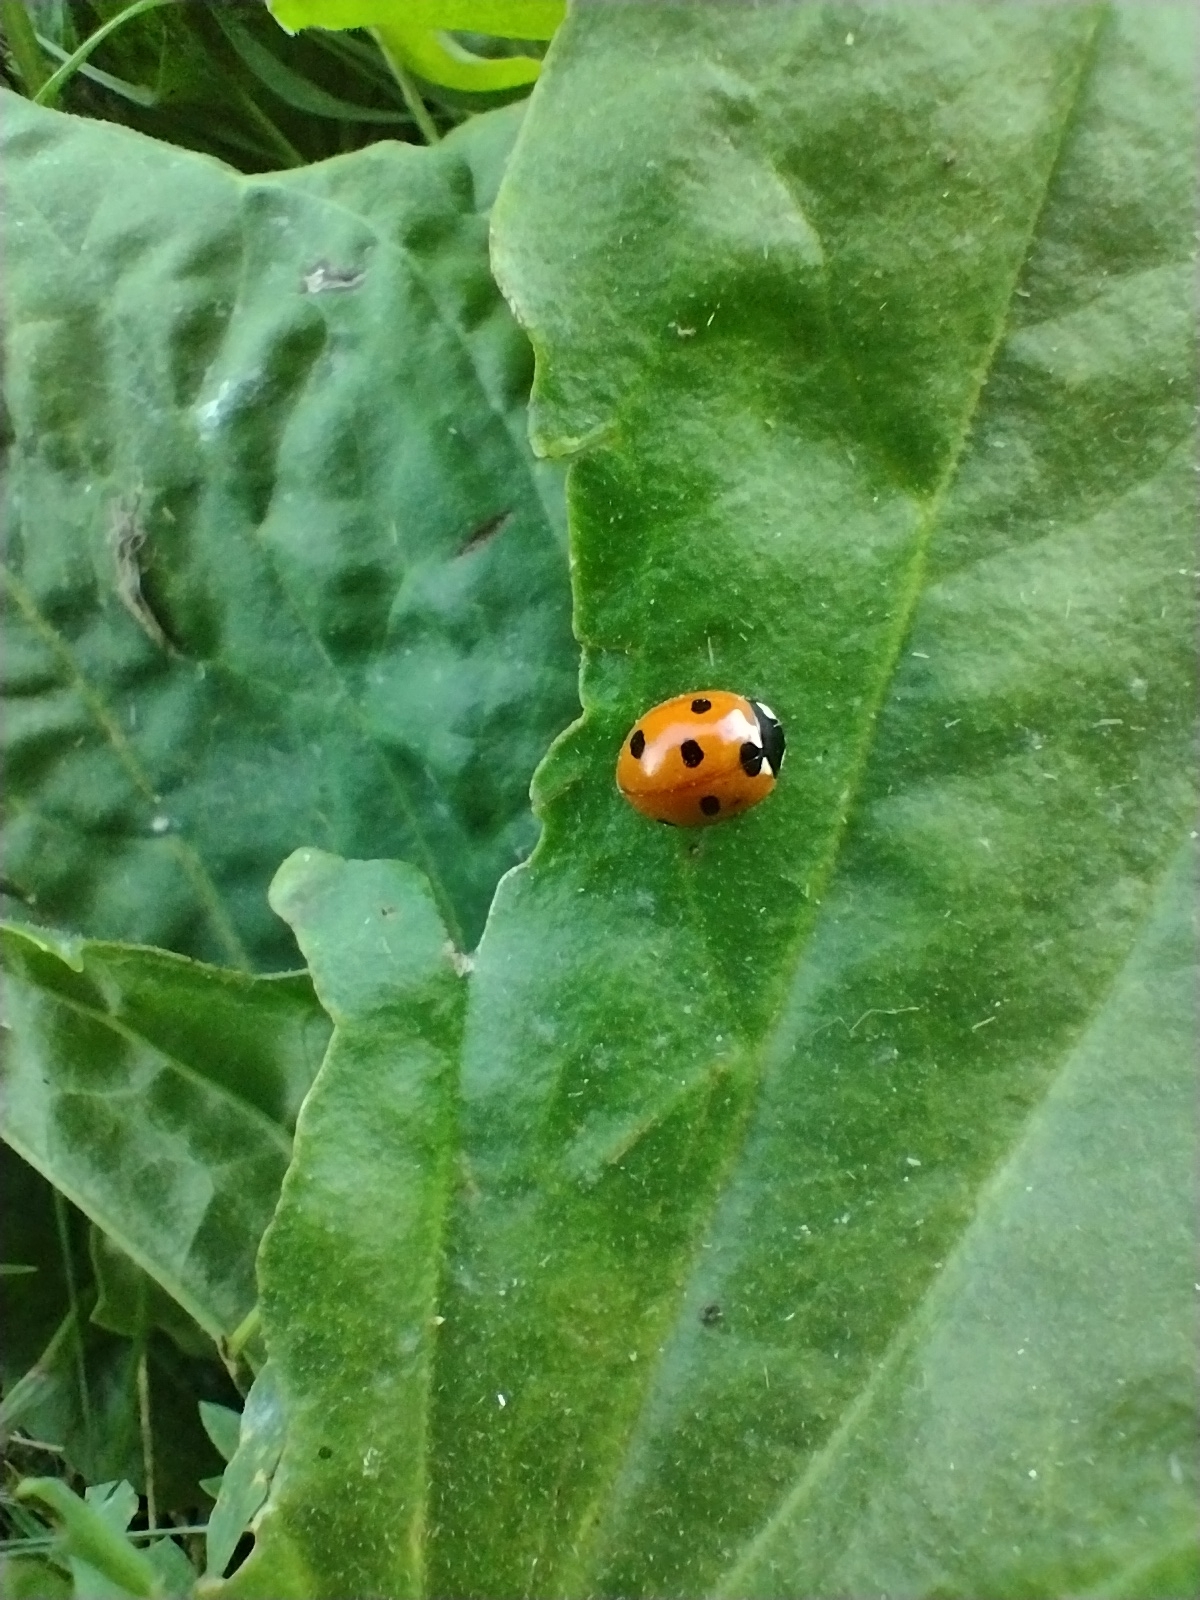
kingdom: Animalia
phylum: Arthropoda
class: Insecta
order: Coleoptera
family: Coccinellidae
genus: Coccinella
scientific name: Coccinella septempunctata
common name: Sevenspotted lady beetle
